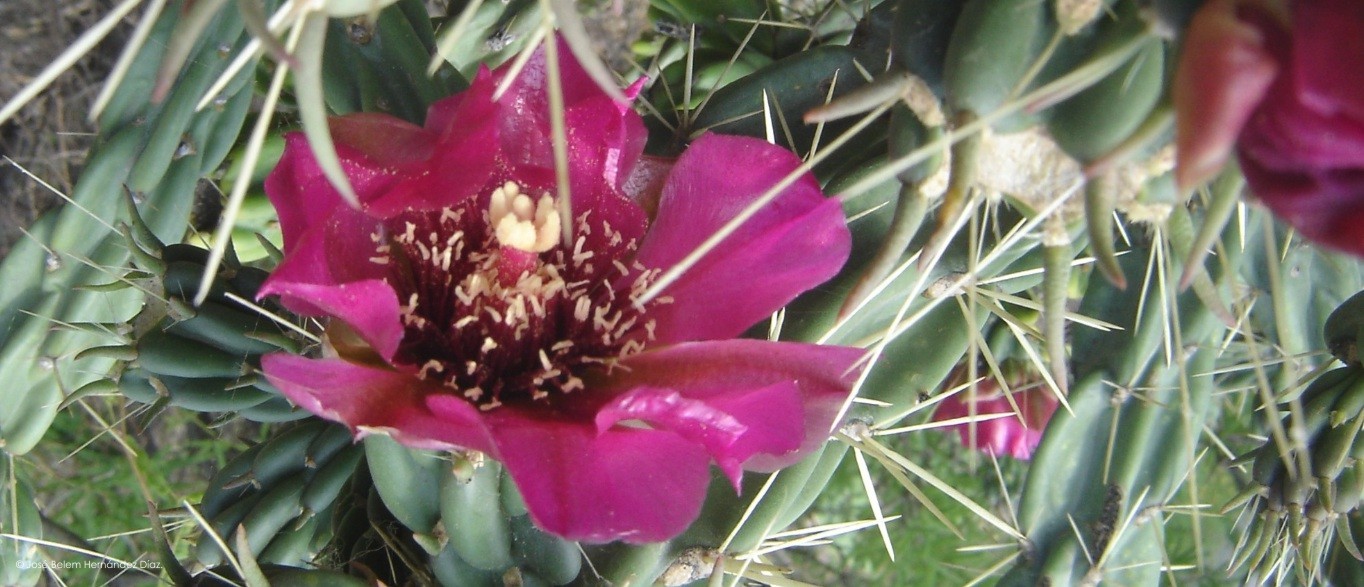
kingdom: Plantae
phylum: Tracheophyta
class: Magnoliopsida
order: Caryophyllales
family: Cactaceae
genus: Cylindropuntia
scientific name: Cylindropuntia imbricata
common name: Candelabrum cactus
